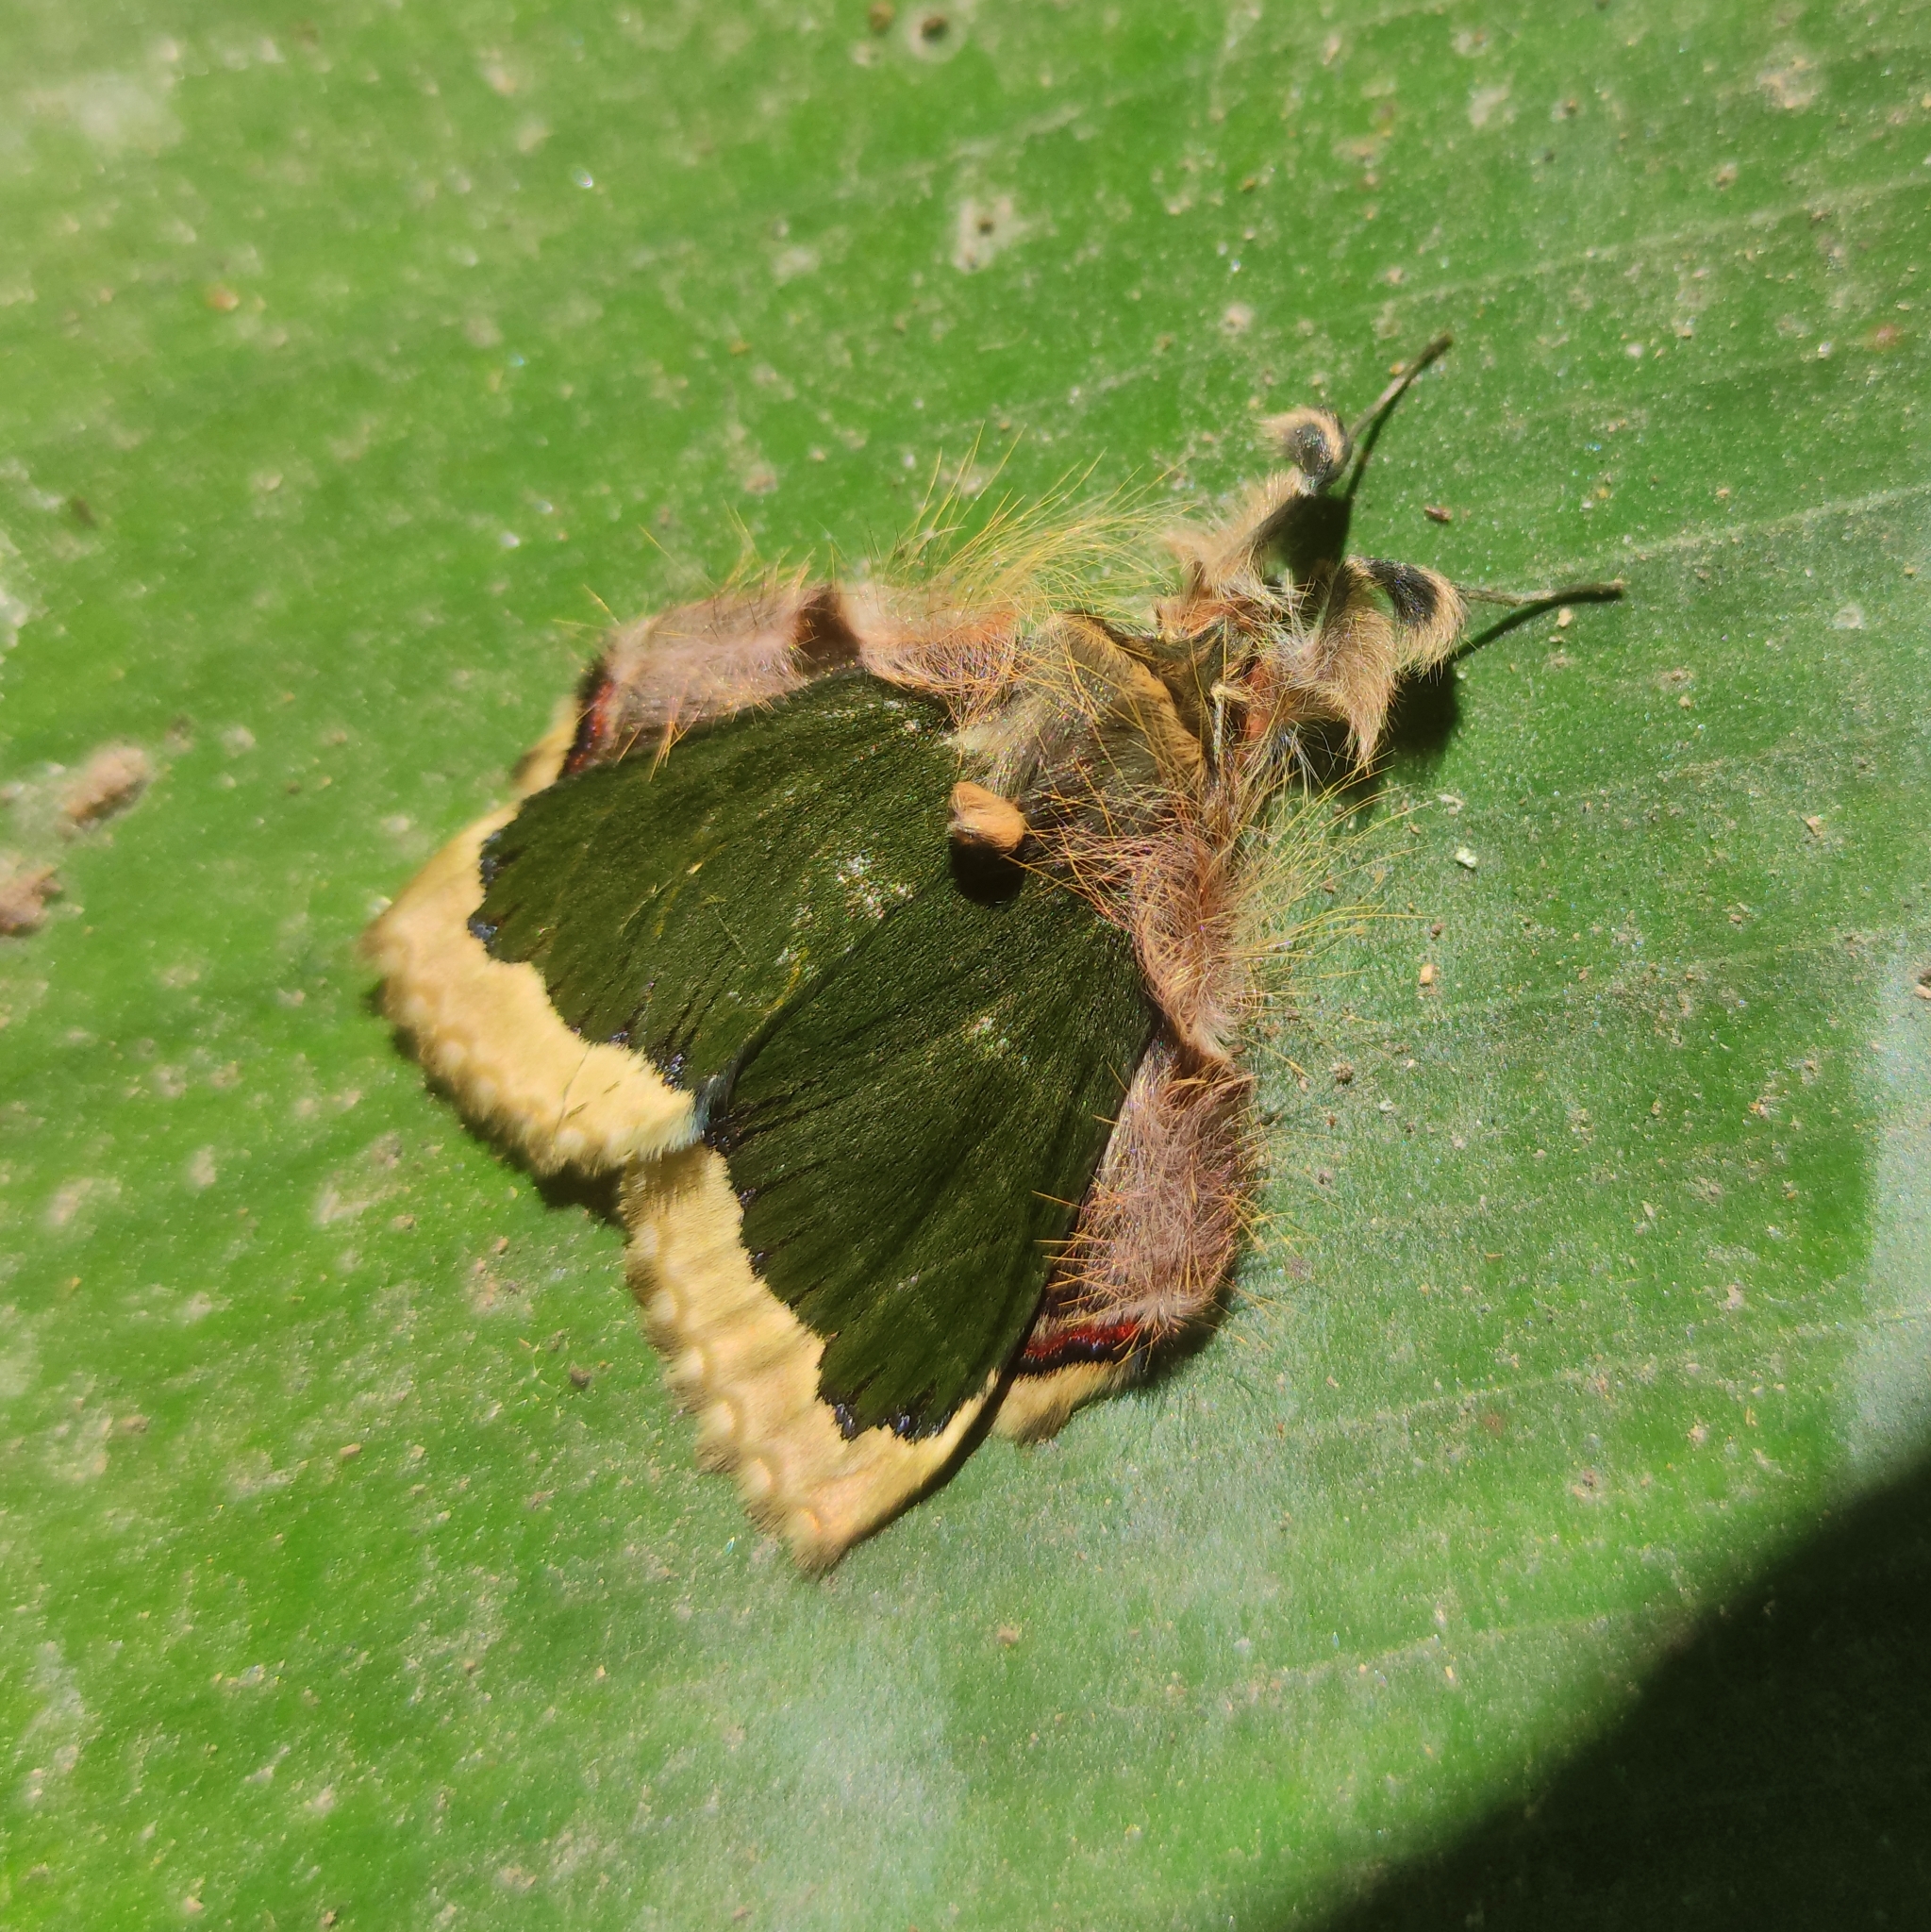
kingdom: Animalia
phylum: Arthropoda
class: Insecta
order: Lepidoptera
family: Erebidae
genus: Ceroctena
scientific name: Ceroctena amynta
